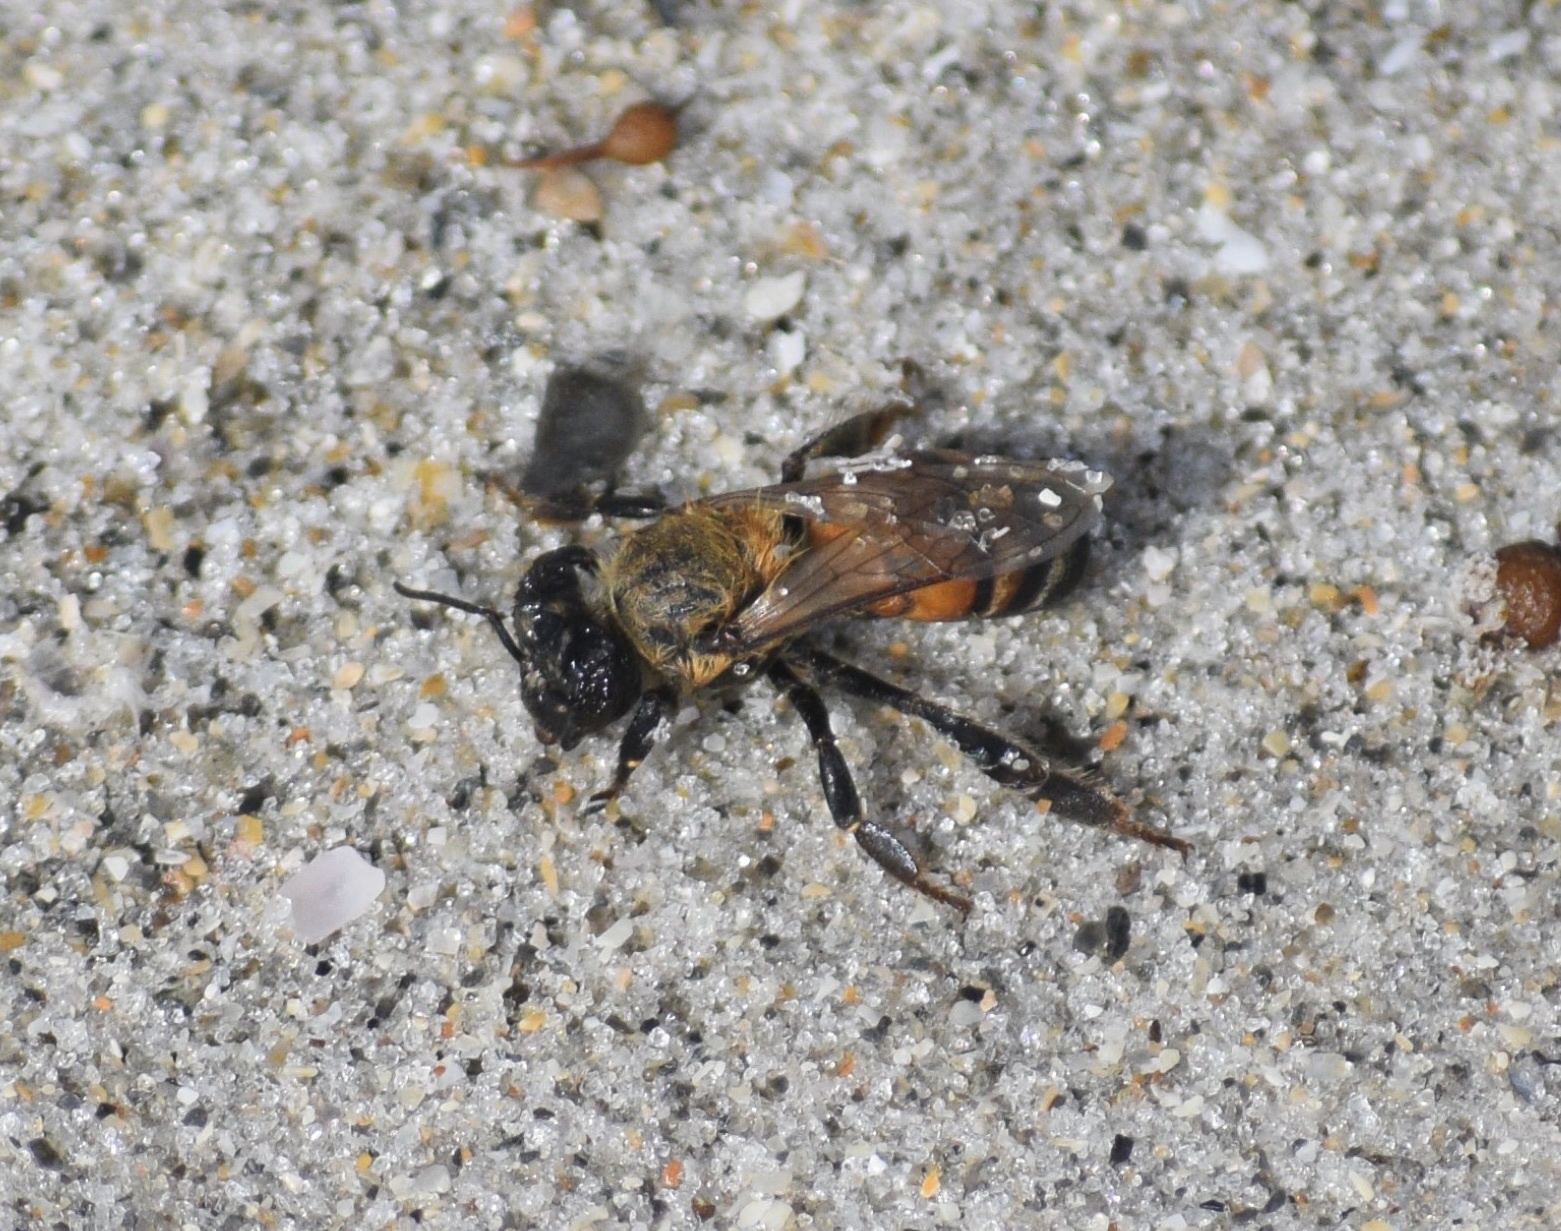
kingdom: Animalia
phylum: Arthropoda
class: Insecta
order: Hymenoptera
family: Apidae
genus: Apis
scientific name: Apis mellifera
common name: Honey bee
